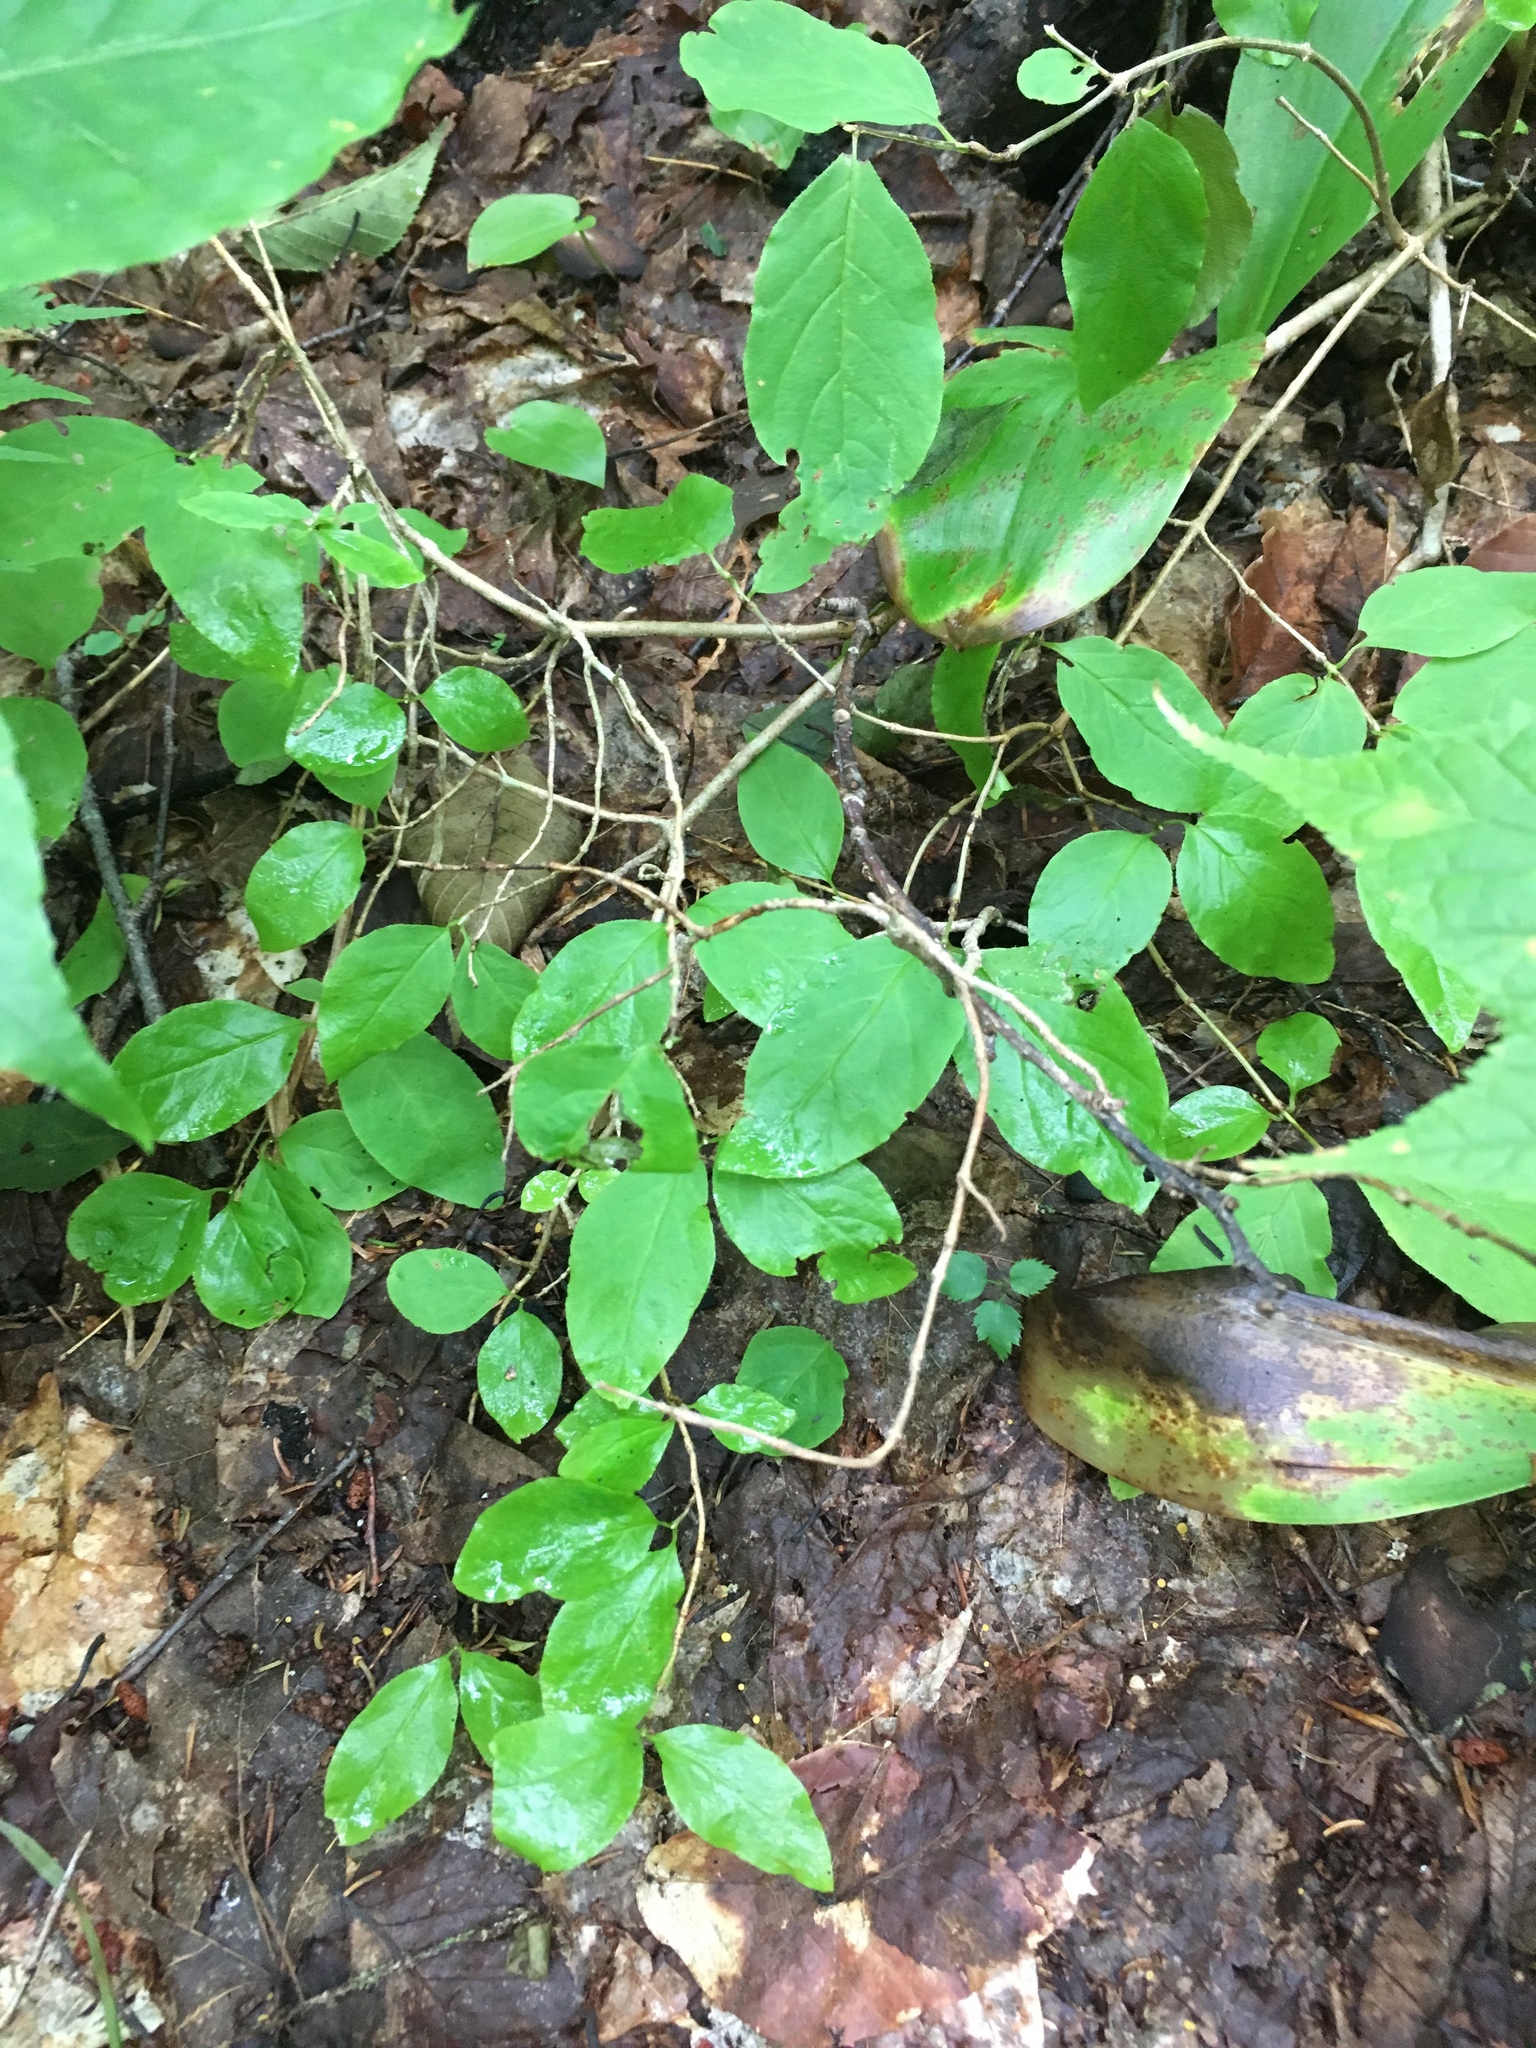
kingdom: Plantae
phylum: Tracheophyta
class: Magnoliopsida
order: Dipsacales
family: Caprifoliaceae
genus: Lonicera
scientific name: Lonicera canadensis
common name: American fly-honeysuckle
